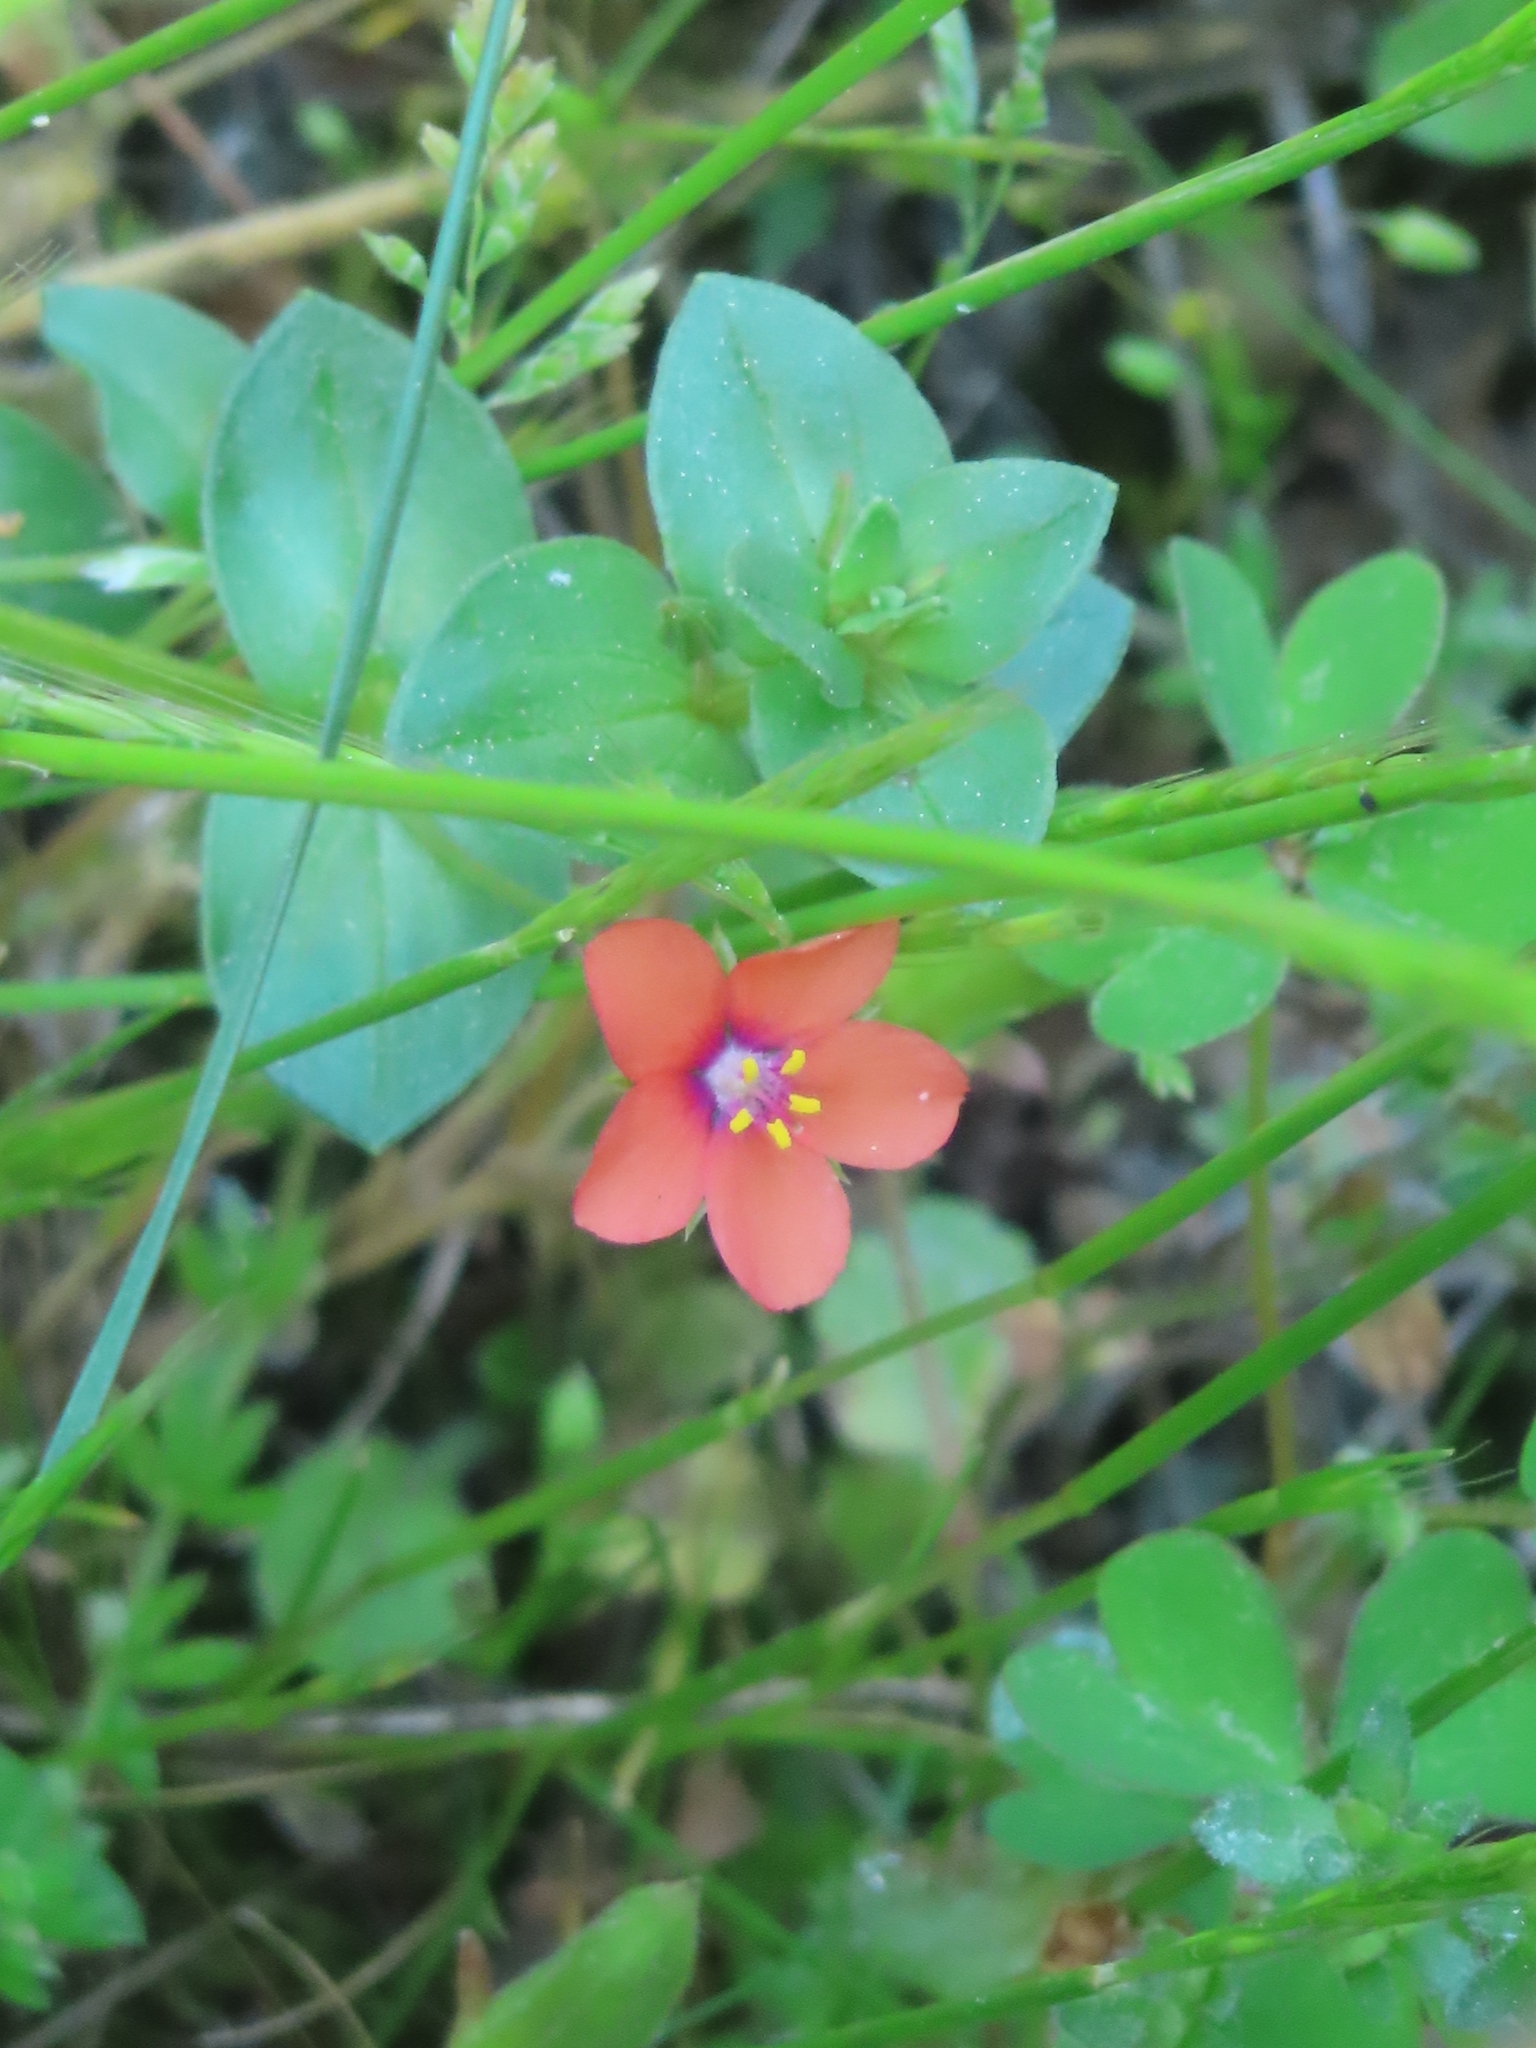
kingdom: Plantae
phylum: Tracheophyta
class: Magnoliopsida
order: Ericales
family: Primulaceae
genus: Lysimachia
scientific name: Lysimachia arvensis
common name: Scarlet pimpernel
